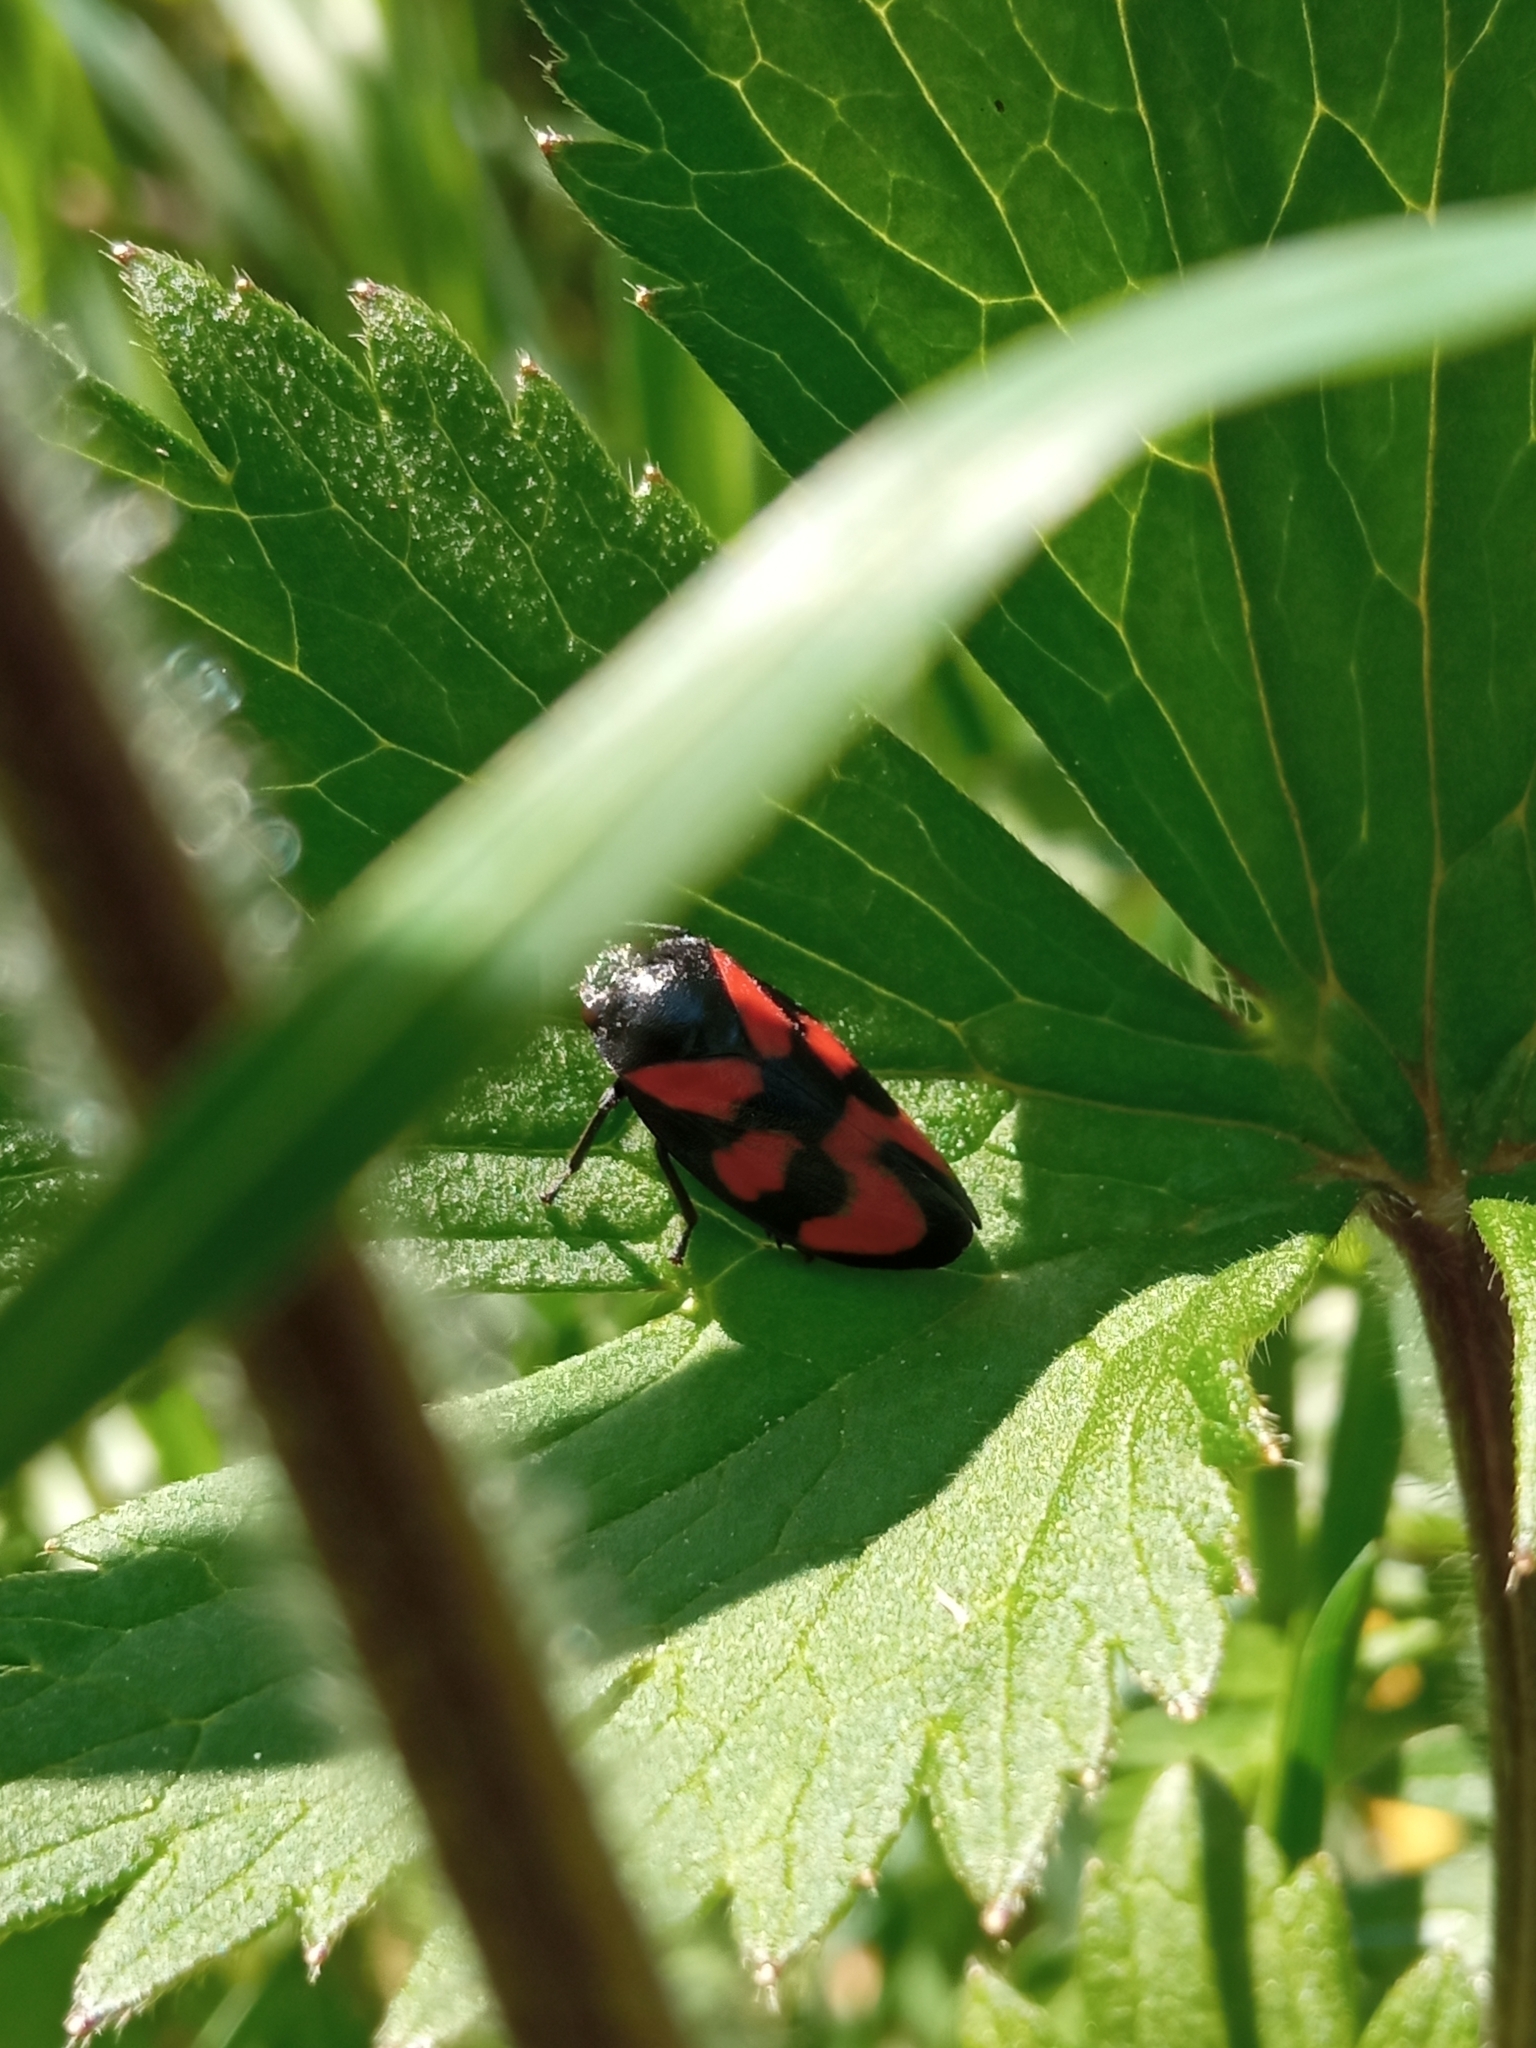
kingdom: Animalia
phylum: Arthropoda
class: Insecta
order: Hemiptera
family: Cercopidae
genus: Cercopis
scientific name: Cercopis vulnerata
